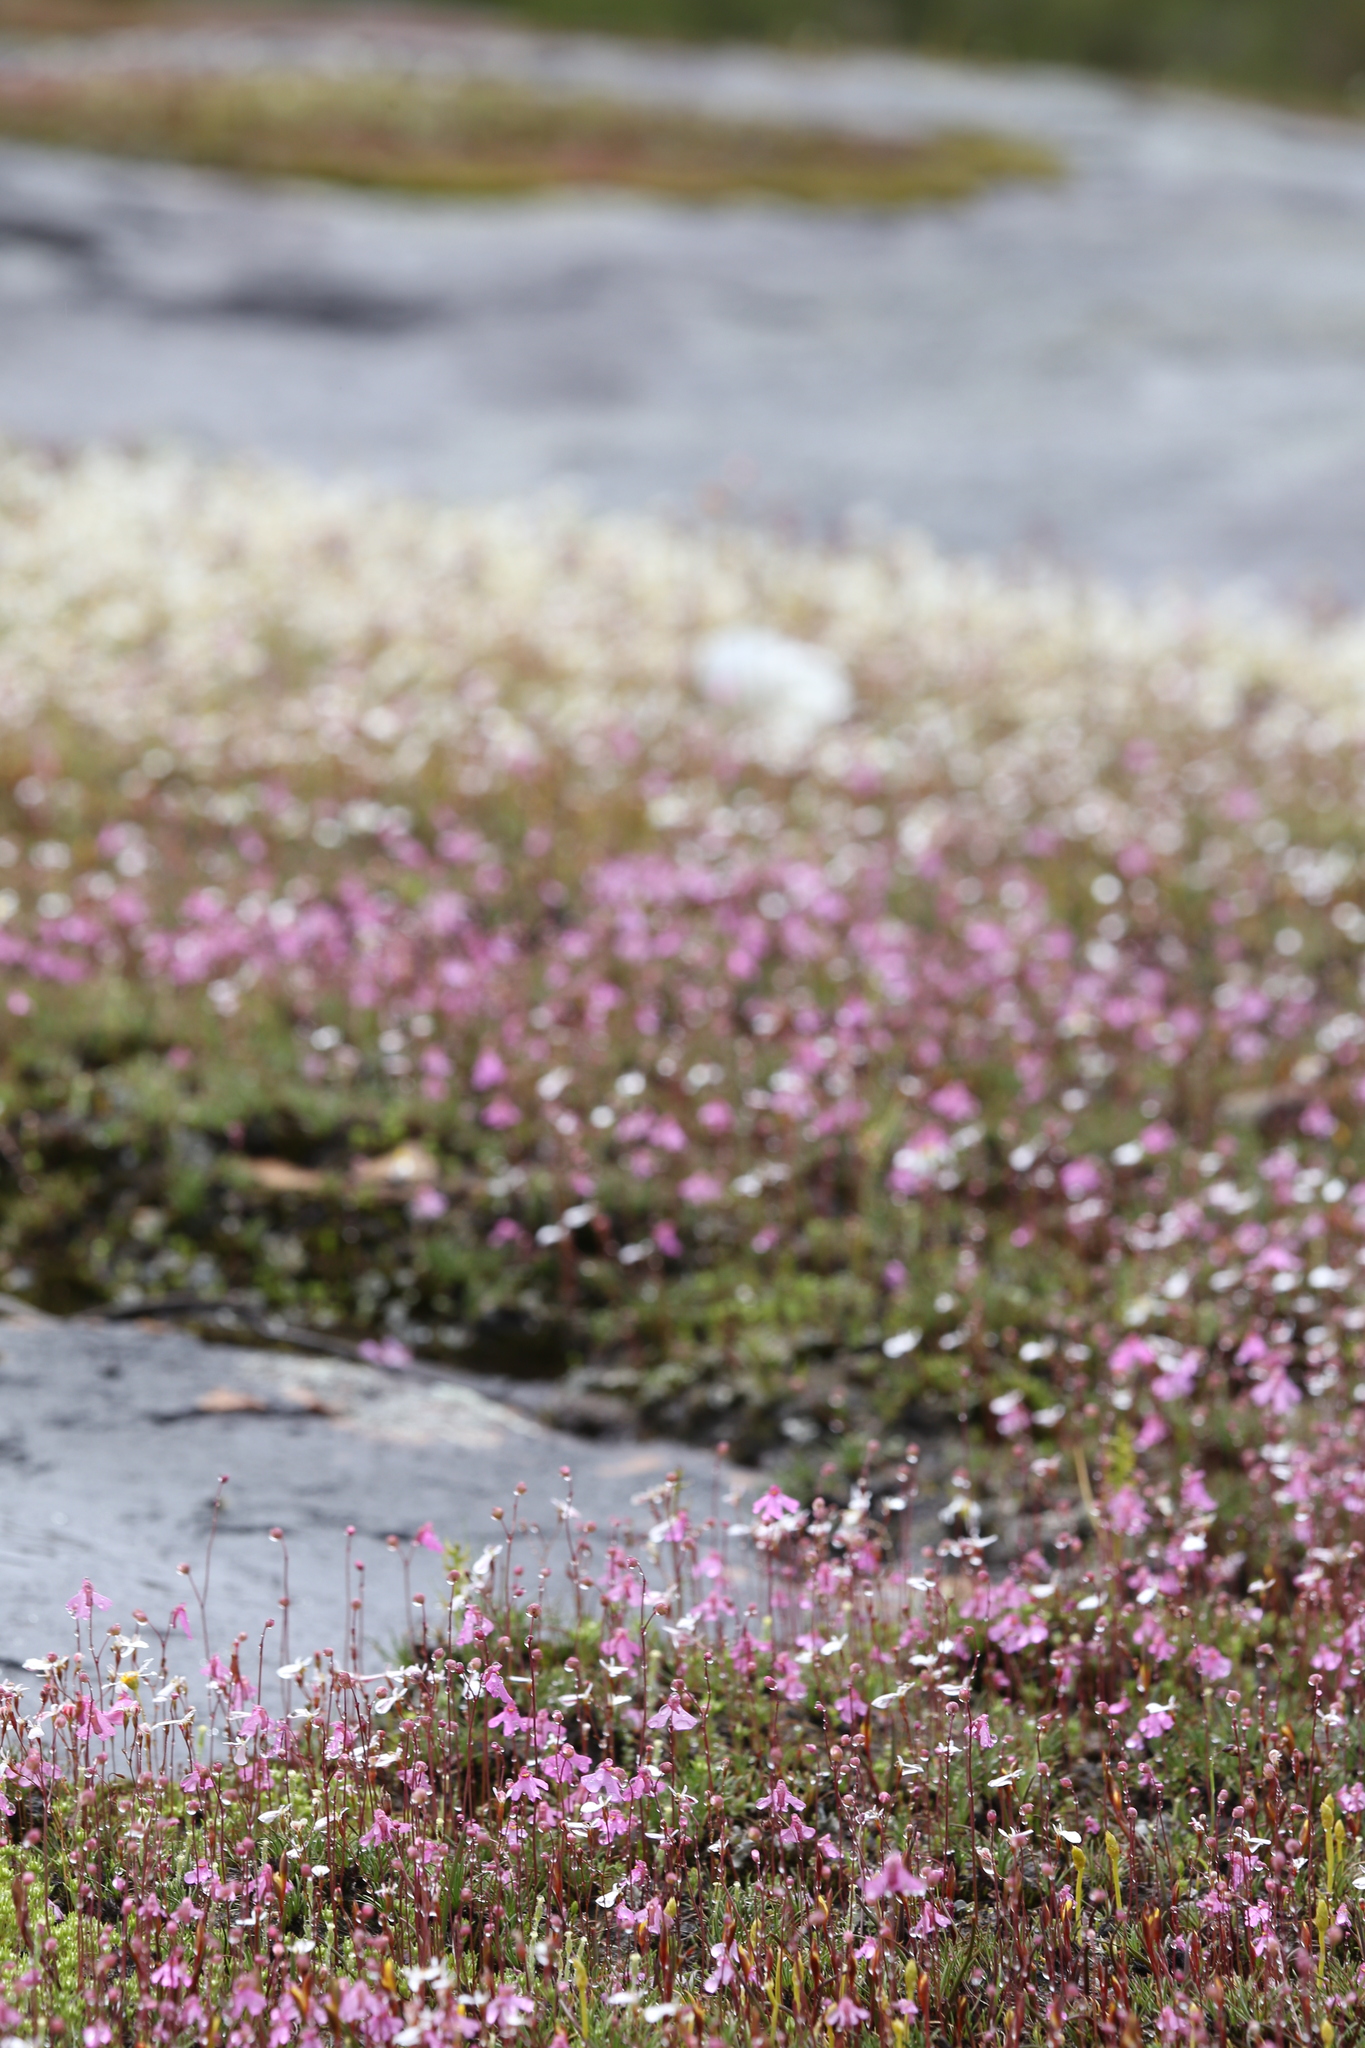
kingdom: Plantae
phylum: Tracheophyta
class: Magnoliopsida
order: Lamiales
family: Lentibulariaceae
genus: Utricularia
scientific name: Utricularia multifida
